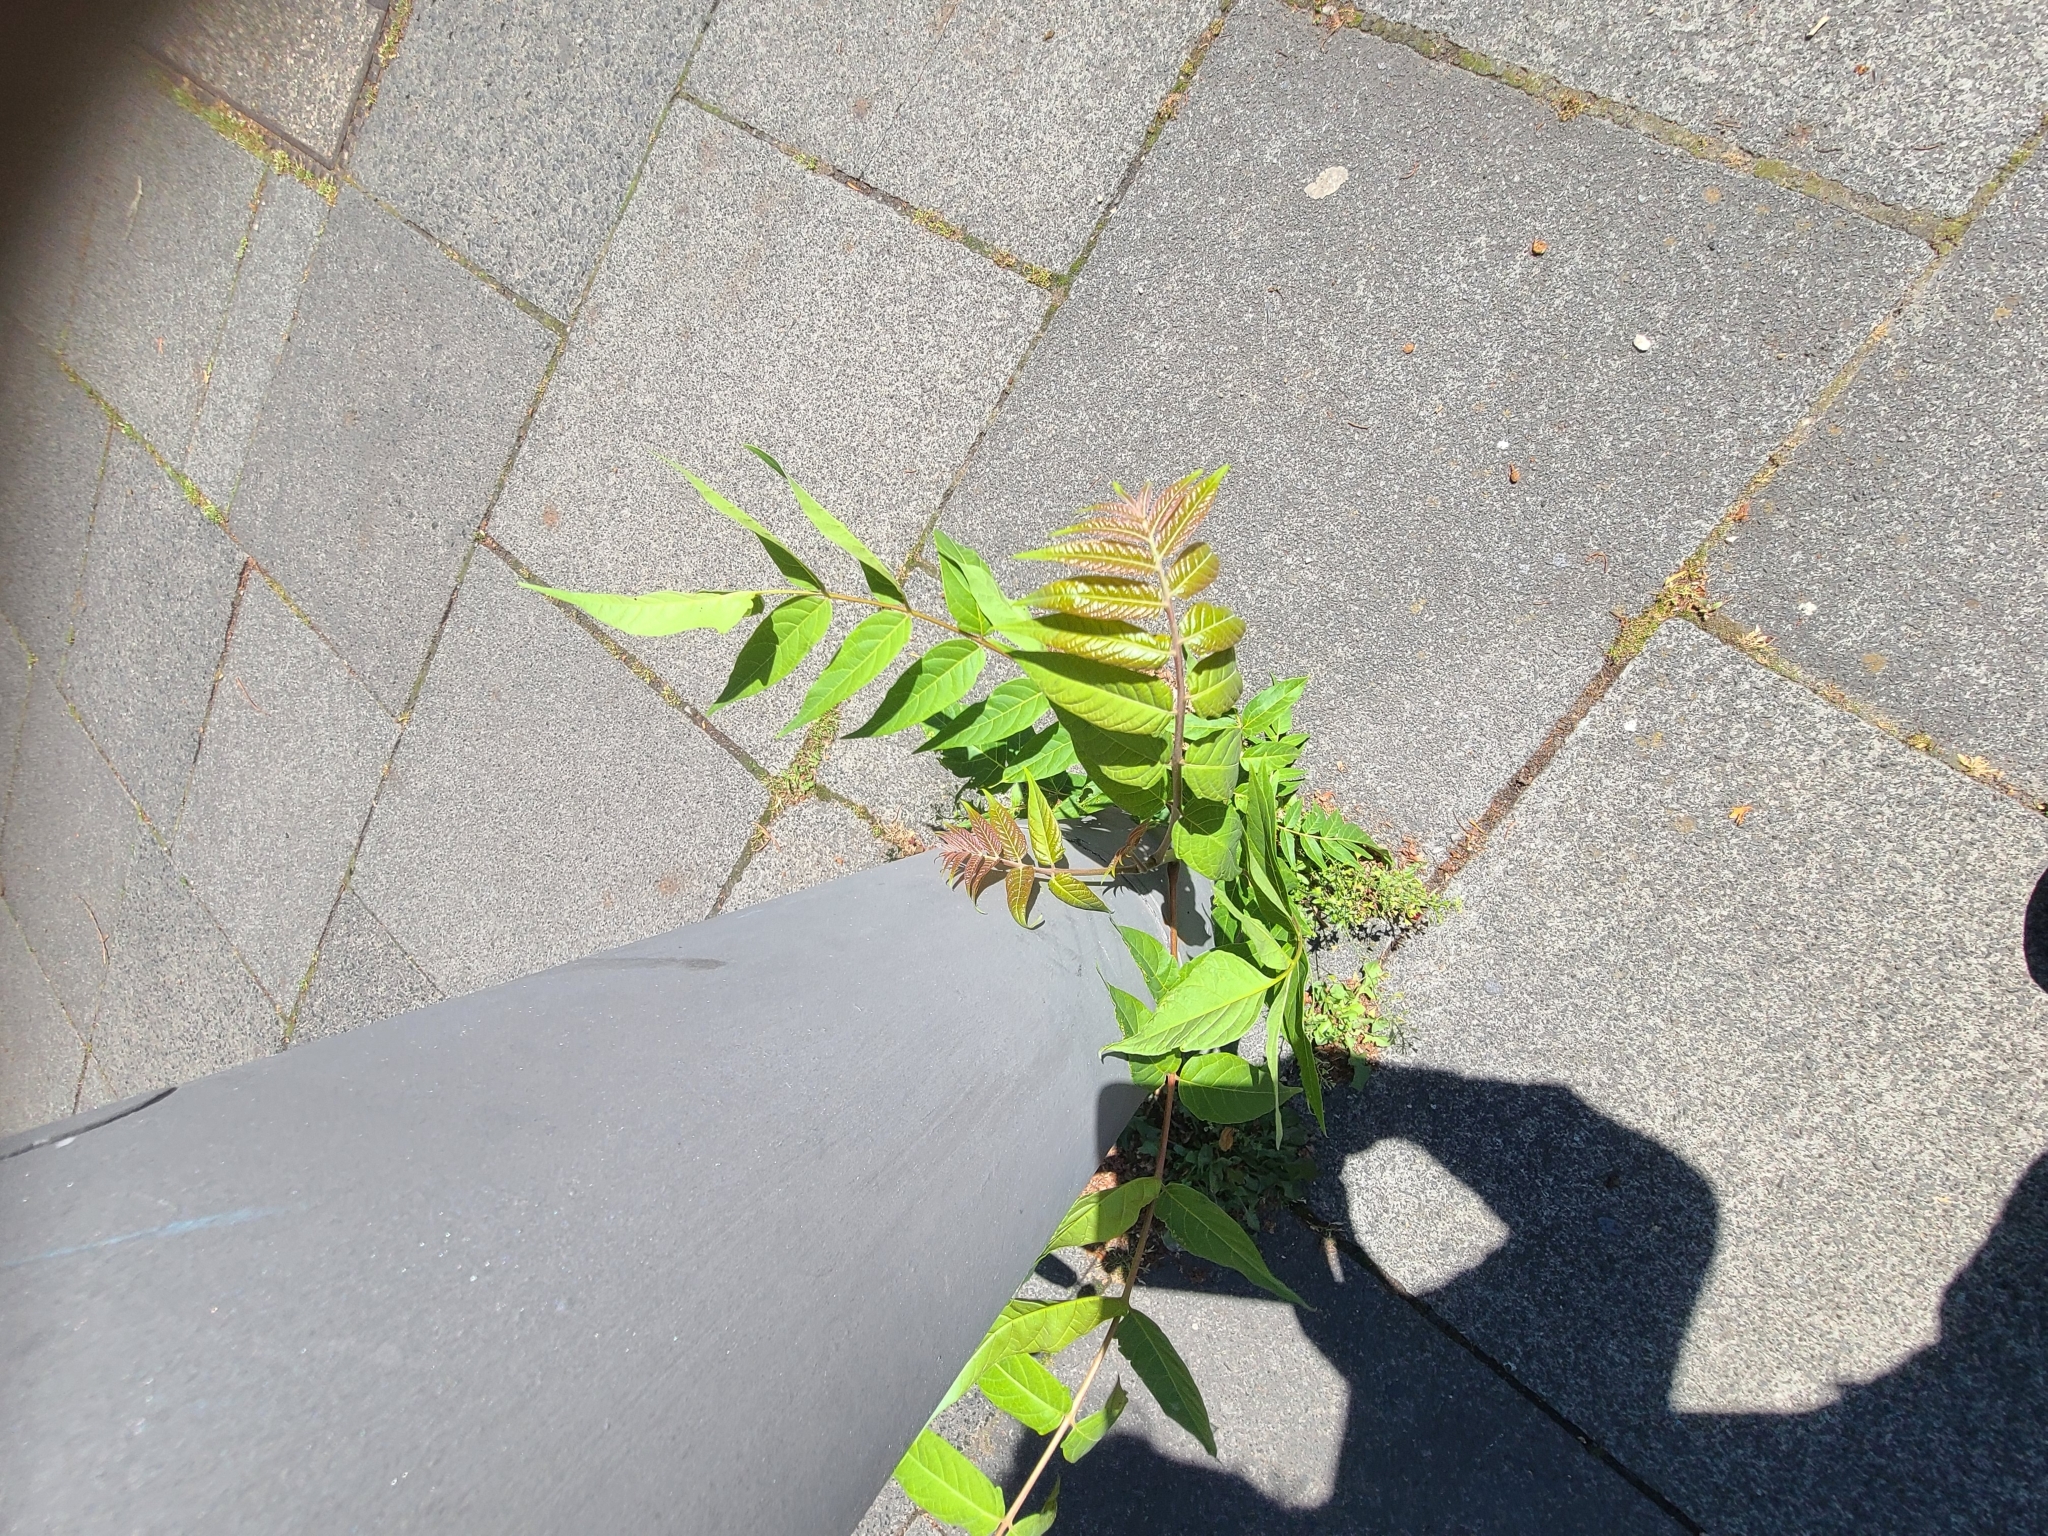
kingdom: Plantae
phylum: Tracheophyta
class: Magnoliopsida
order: Sapindales
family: Simaroubaceae
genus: Ailanthus
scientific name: Ailanthus altissima
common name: Tree-of-heaven
